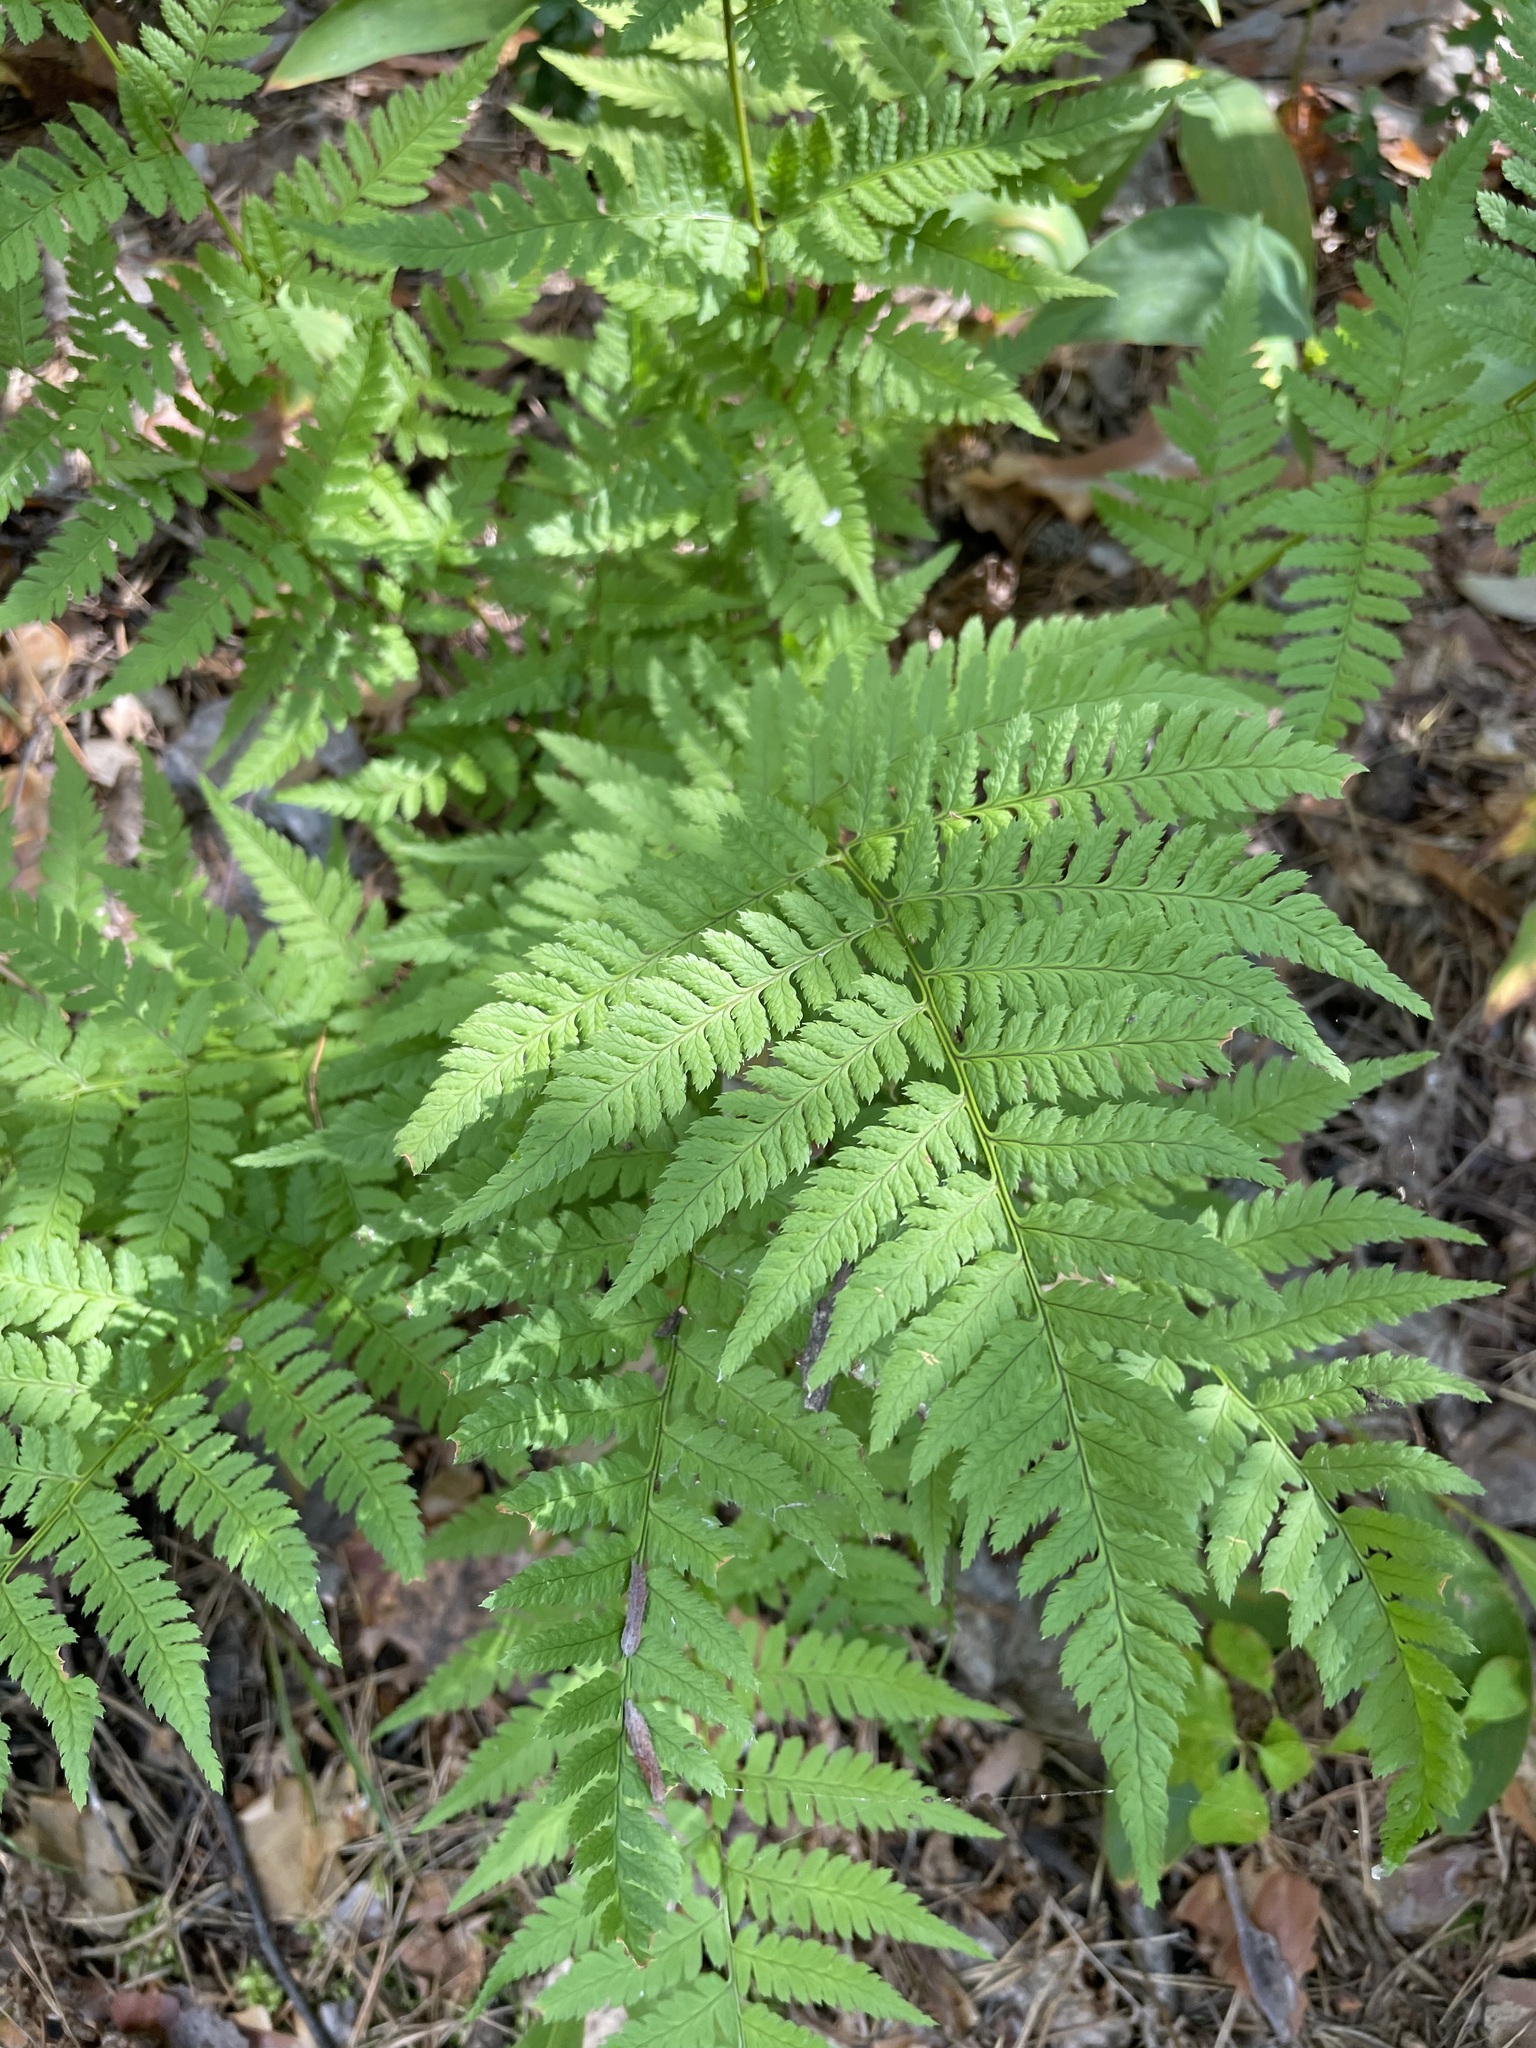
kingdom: Plantae
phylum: Tracheophyta
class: Polypodiopsida
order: Polypodiales
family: Dryopteridaceae
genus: Dryopteris
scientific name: Dryopteris carthusiana
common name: Narrow buckler-fern
